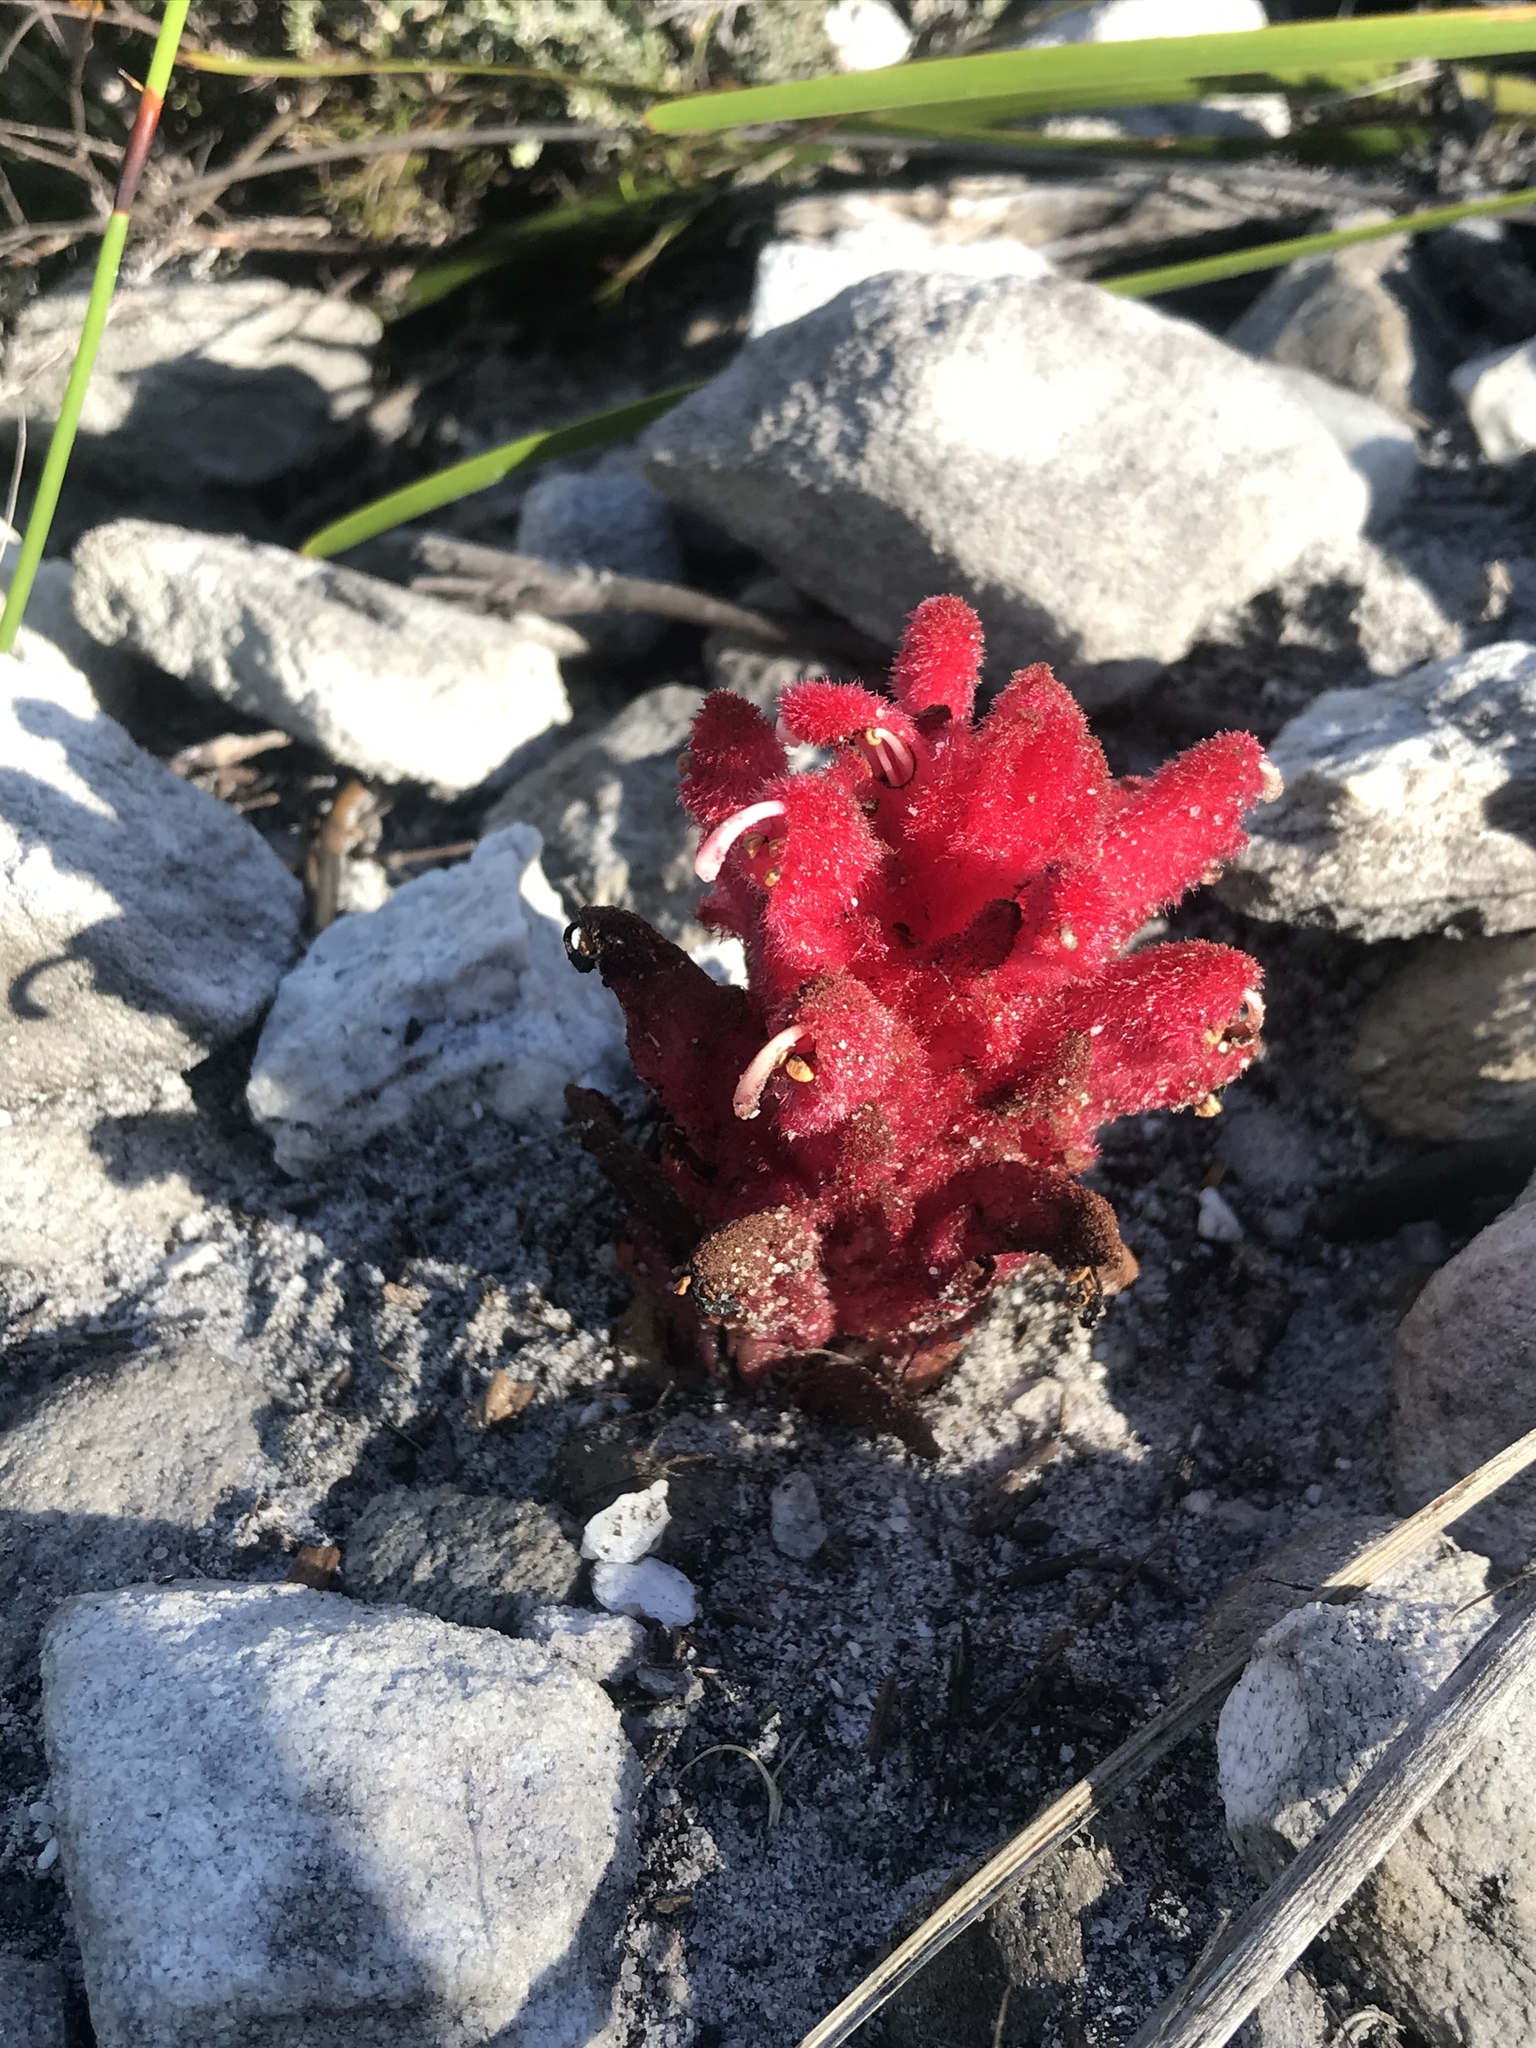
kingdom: Plantae
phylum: Tracheophyta
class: Magnoliopsida
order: Lamiales
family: Orobanchaceae
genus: Hyobanche
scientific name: Hyobanche sanguinea
